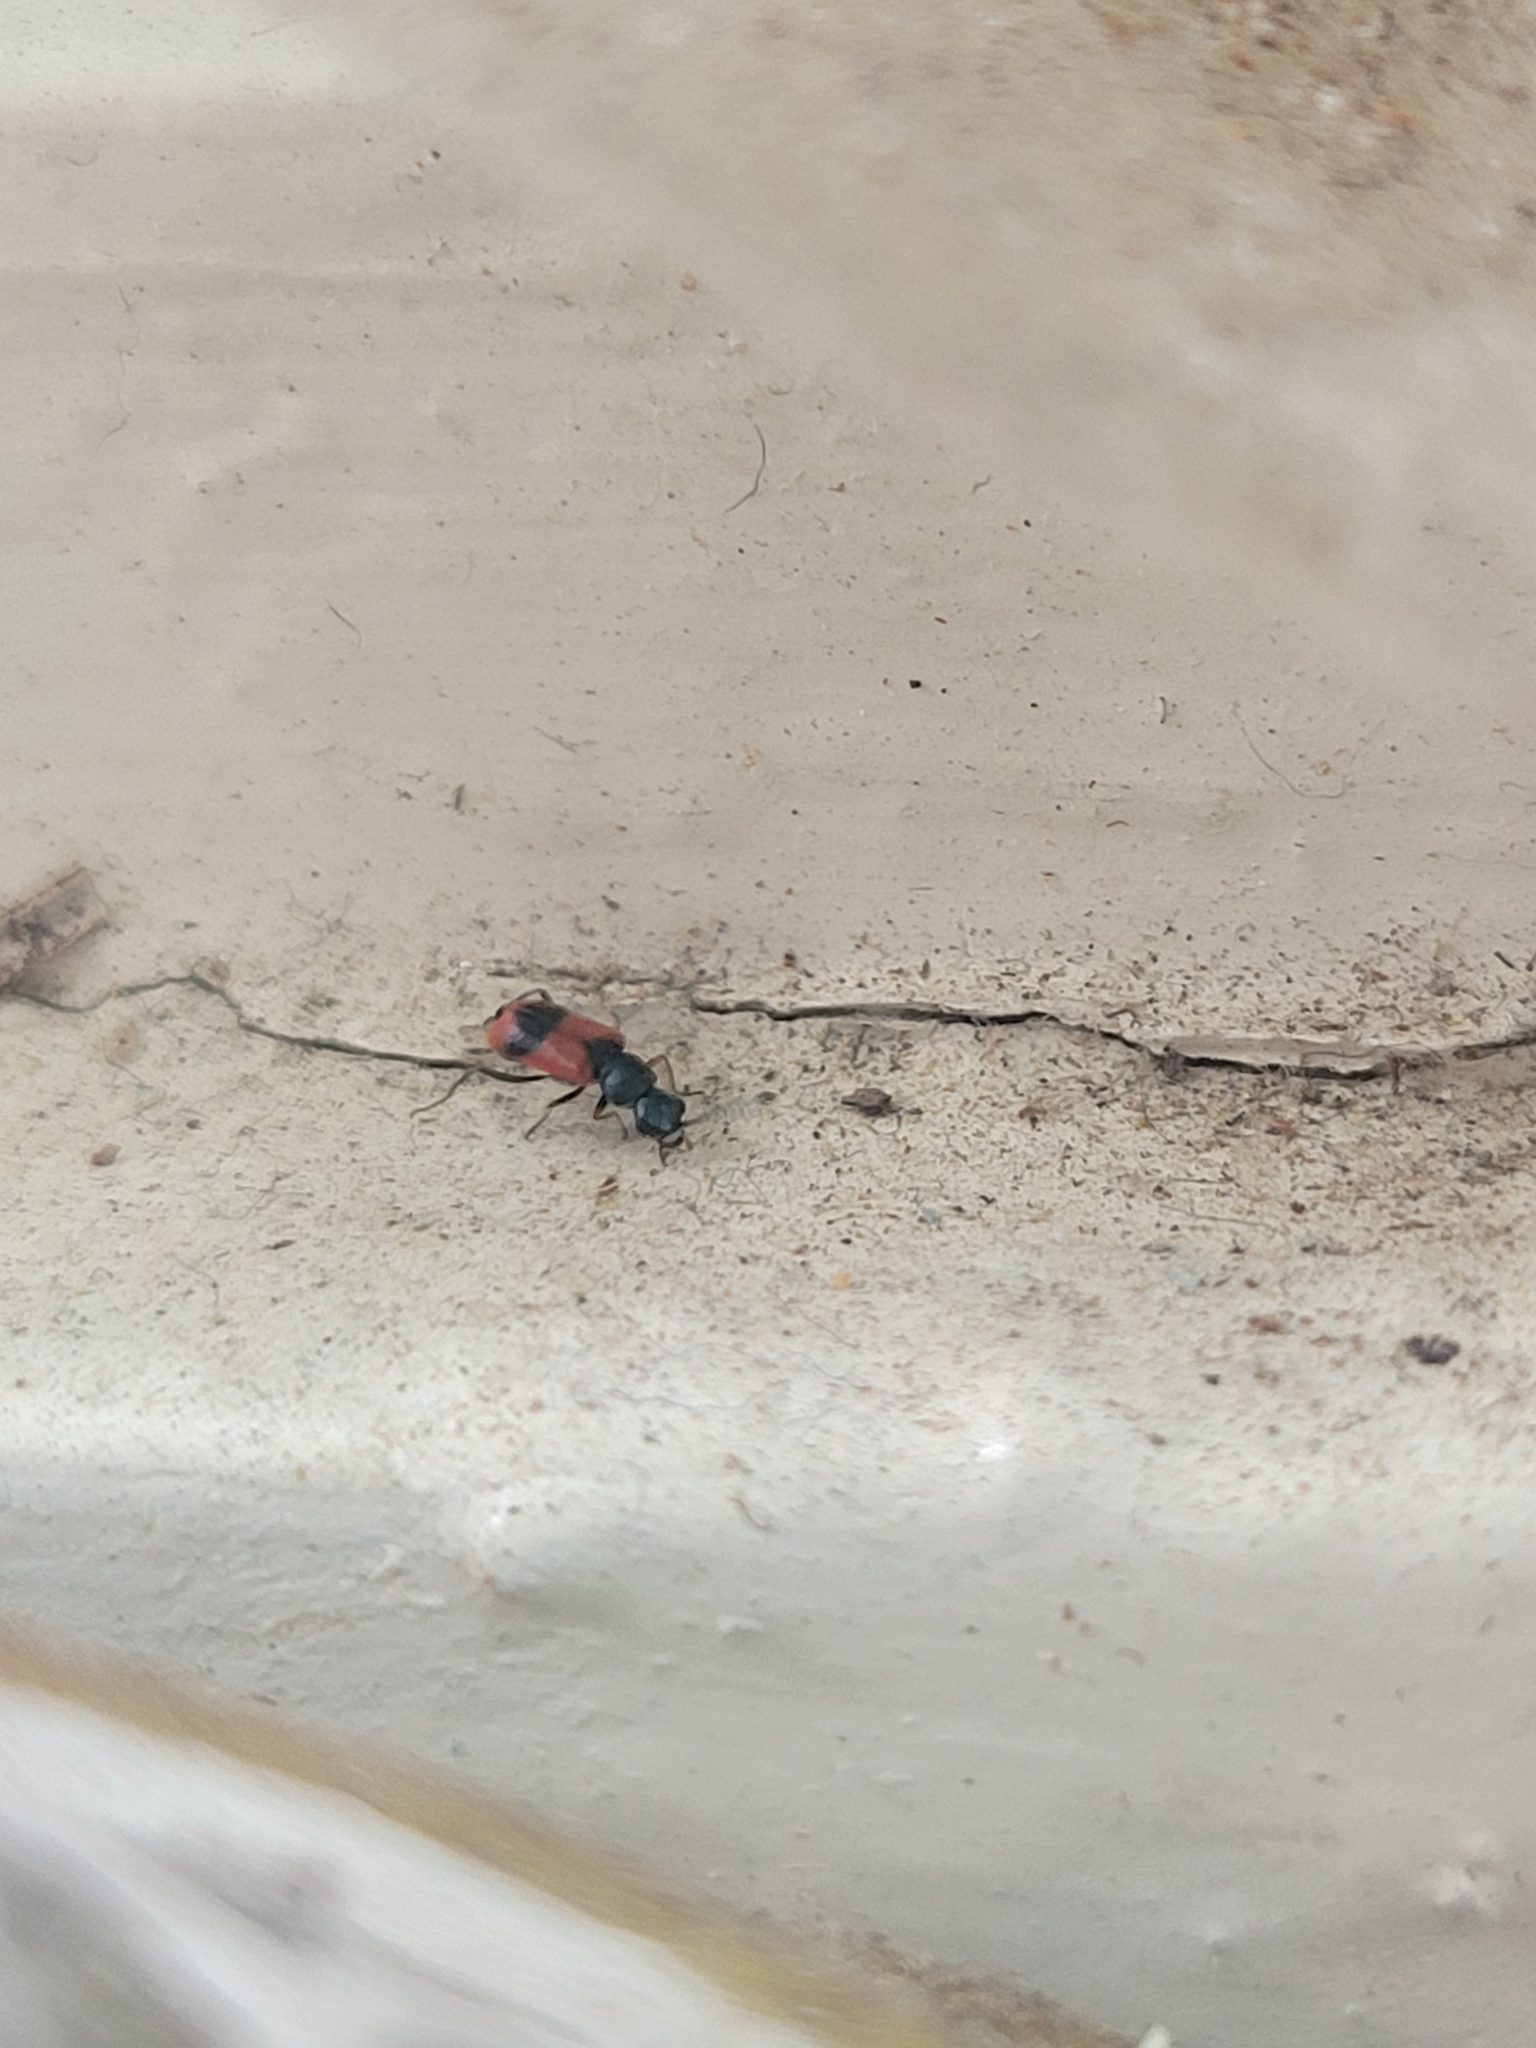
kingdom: Animalia
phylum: Arthropoda
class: Insecta
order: Coleoptera
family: Melyridae
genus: Anthocomus
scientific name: Anthocomus equestris
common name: Black-banded soft-winged flower beetle
